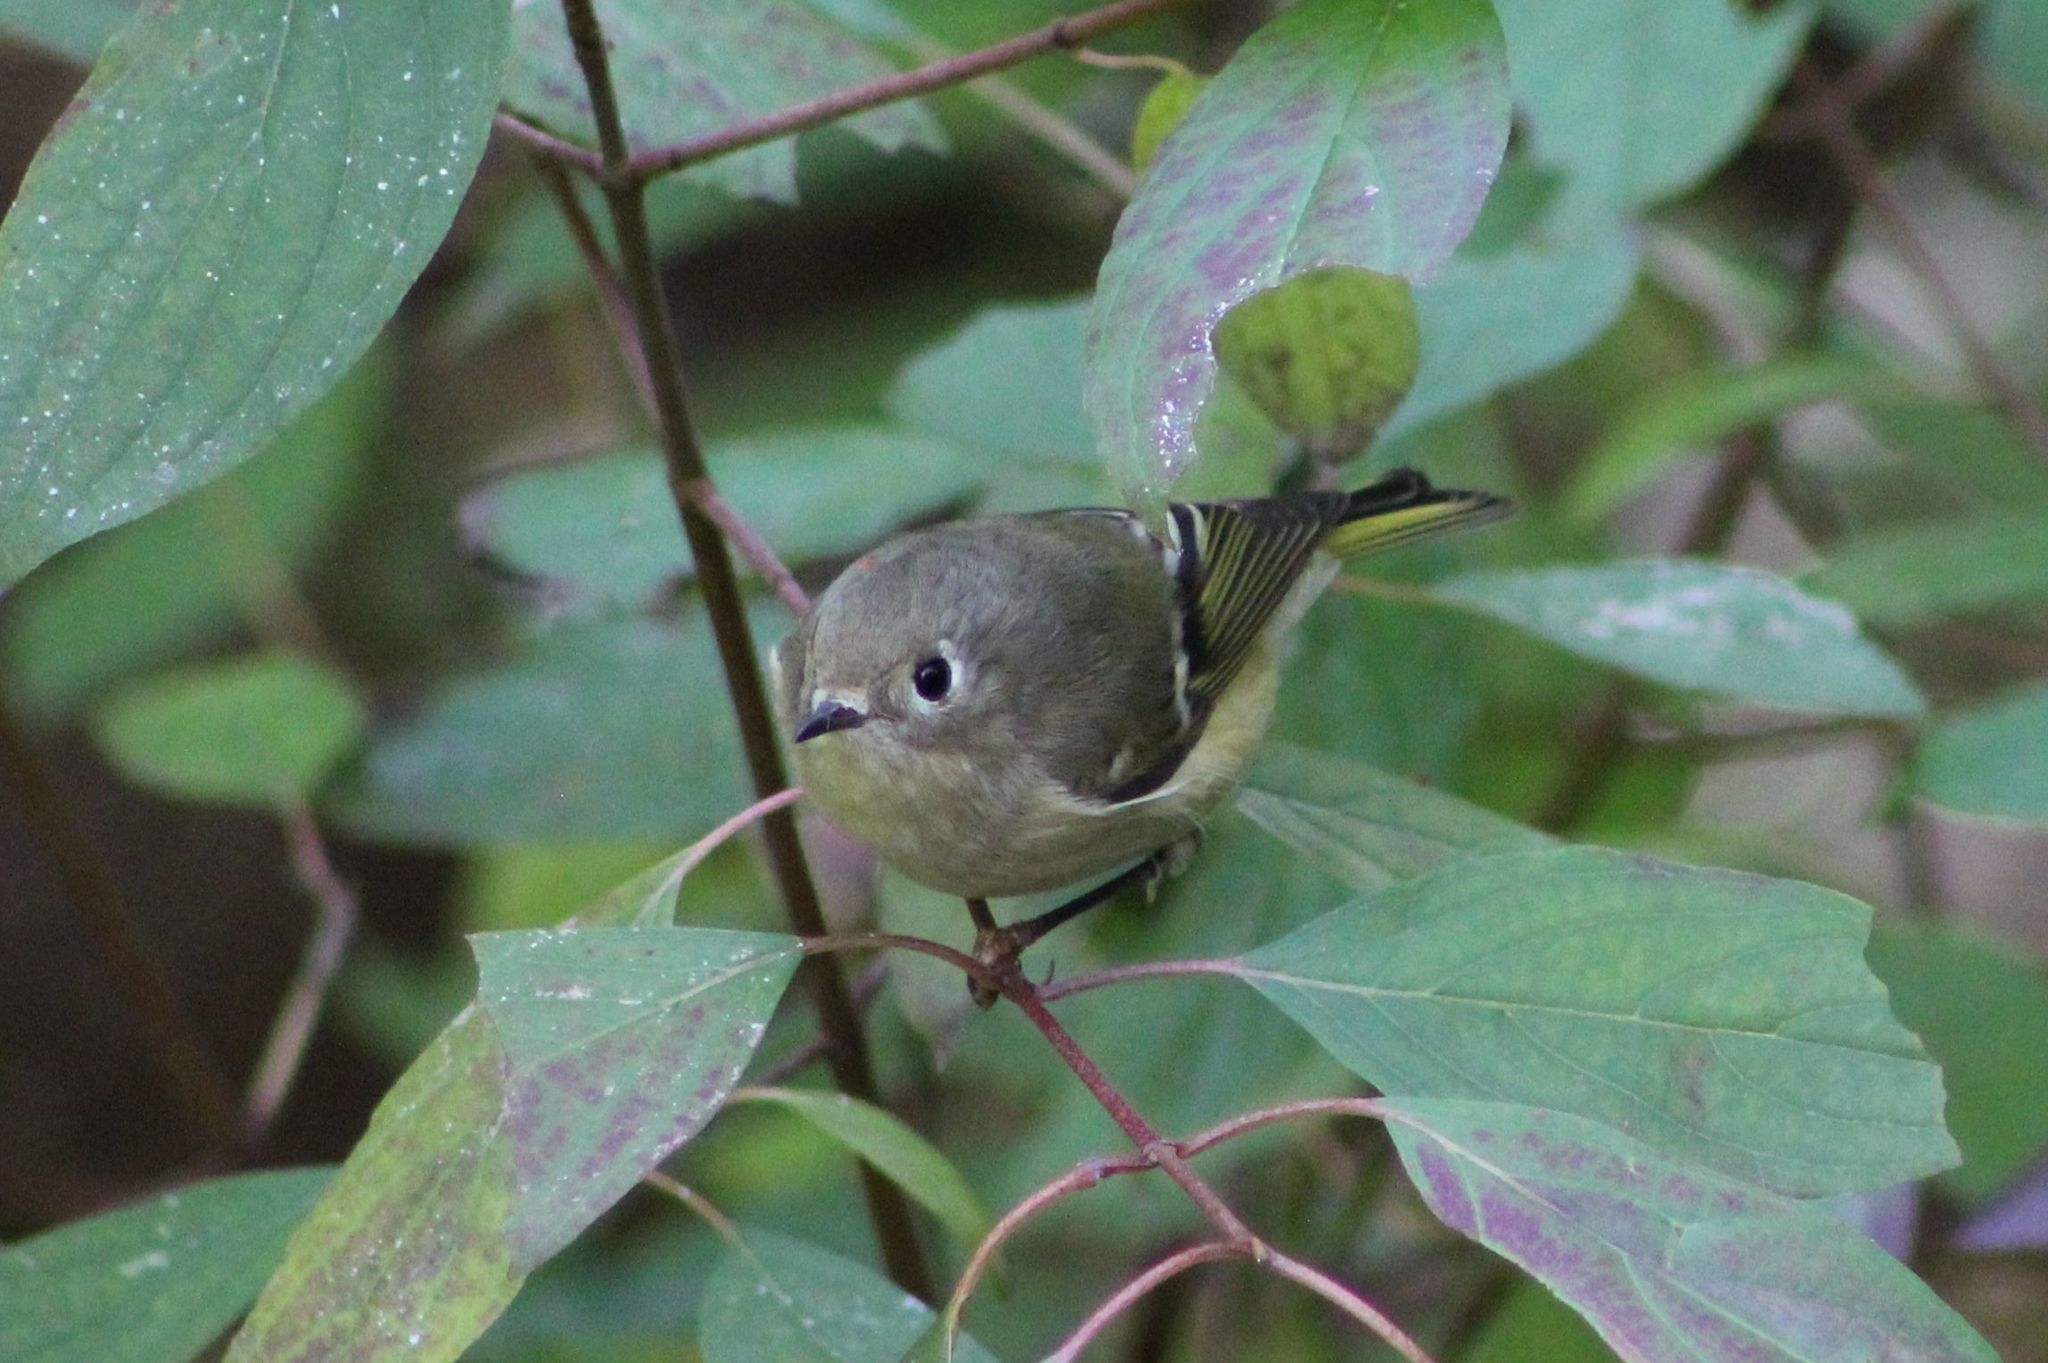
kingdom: Animalia
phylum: Chordata
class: Aves
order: Passeriformes
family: Regulidae
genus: Regulus
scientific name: Regulus calendula
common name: Ruby-crowned kinglet
